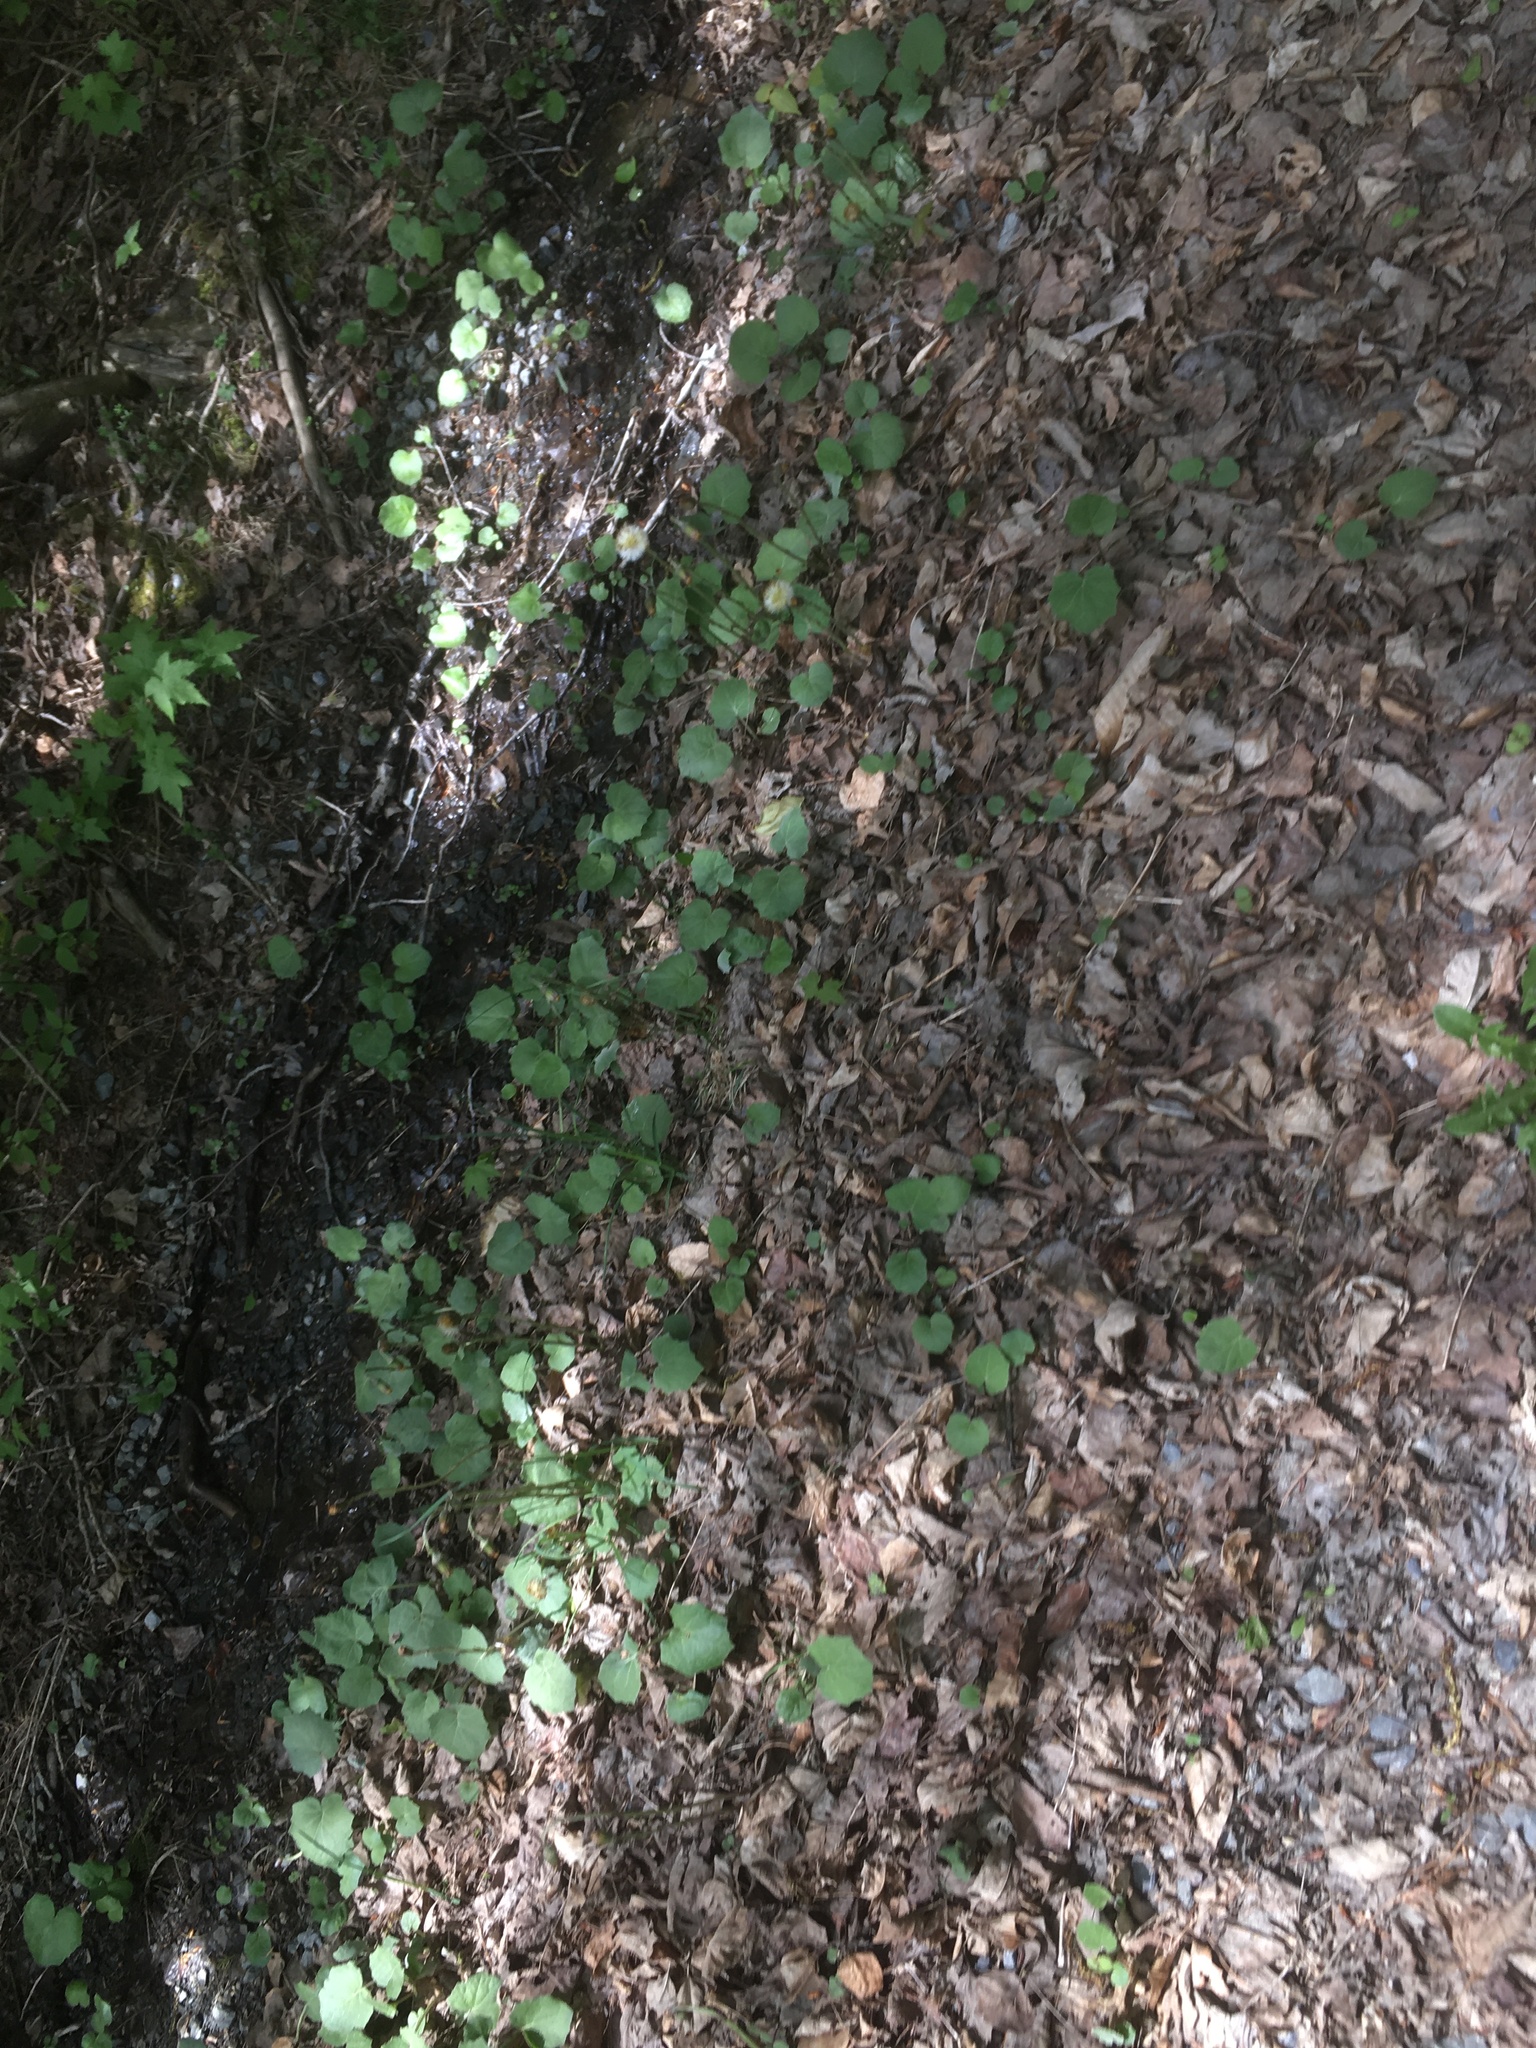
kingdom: Plantae
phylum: Tracheophyta
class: Magnoliopsida
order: Asterales
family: Asteraceae
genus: Tussilago
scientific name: Tussilago farfara
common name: Coltsfoot
